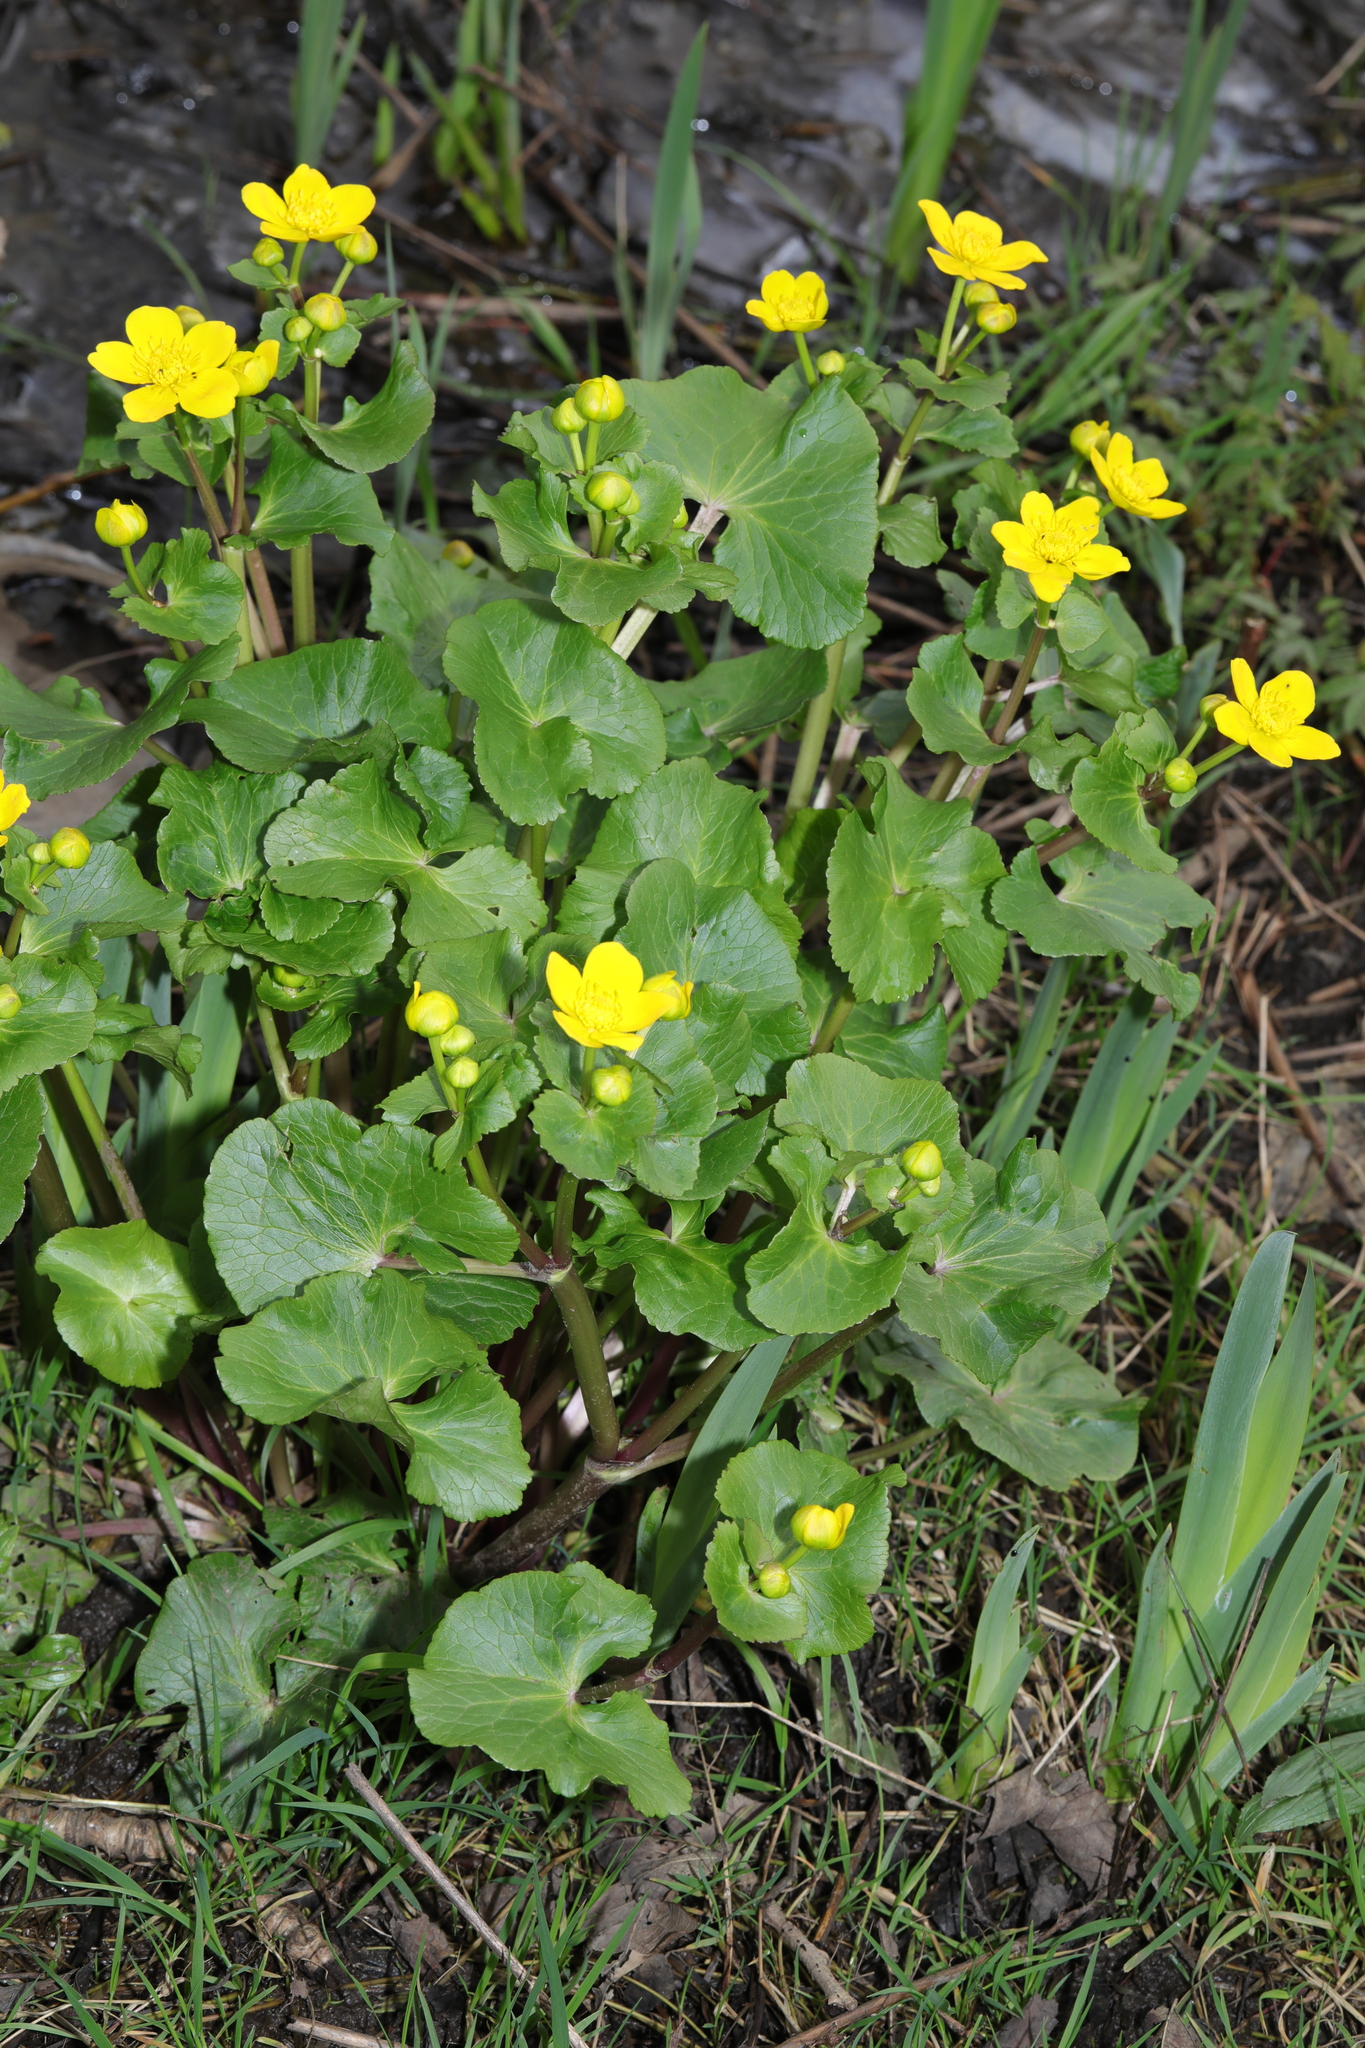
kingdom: Plantae
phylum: Tracheophyta
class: Magnoliopsida
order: Ranunculales
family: Ranunculaceae
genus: Caltha
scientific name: Caltha palustris
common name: Marsh marigold
